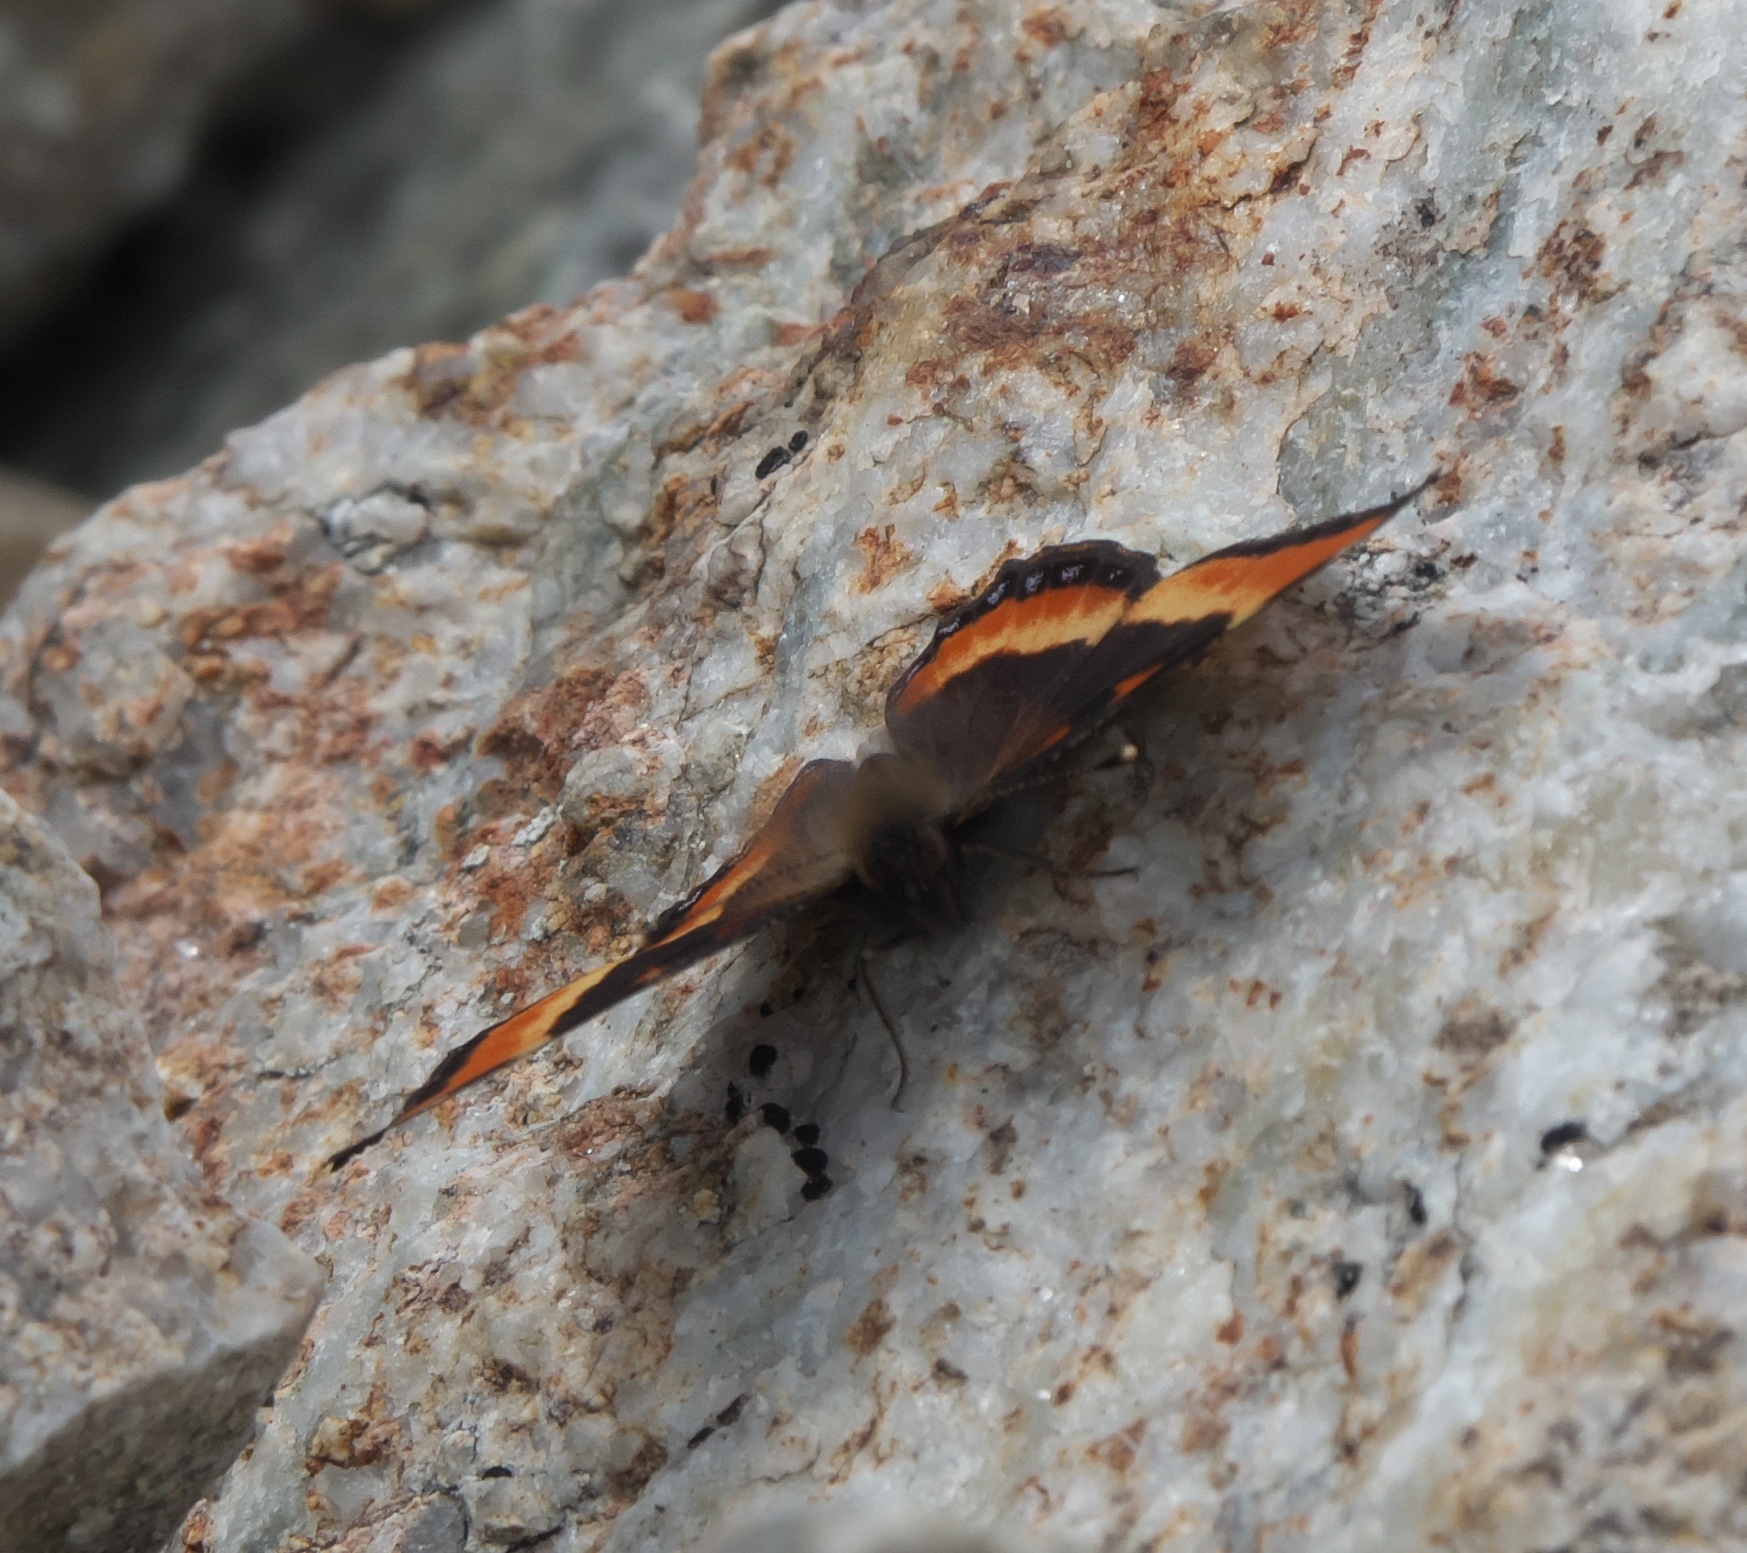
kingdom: Animalia
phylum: Arthropoda
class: Insecta
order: Lepidoptera
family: Nymphalidae
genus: Aglais
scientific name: Aglais milberti
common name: Milbert's tortoiseshell
